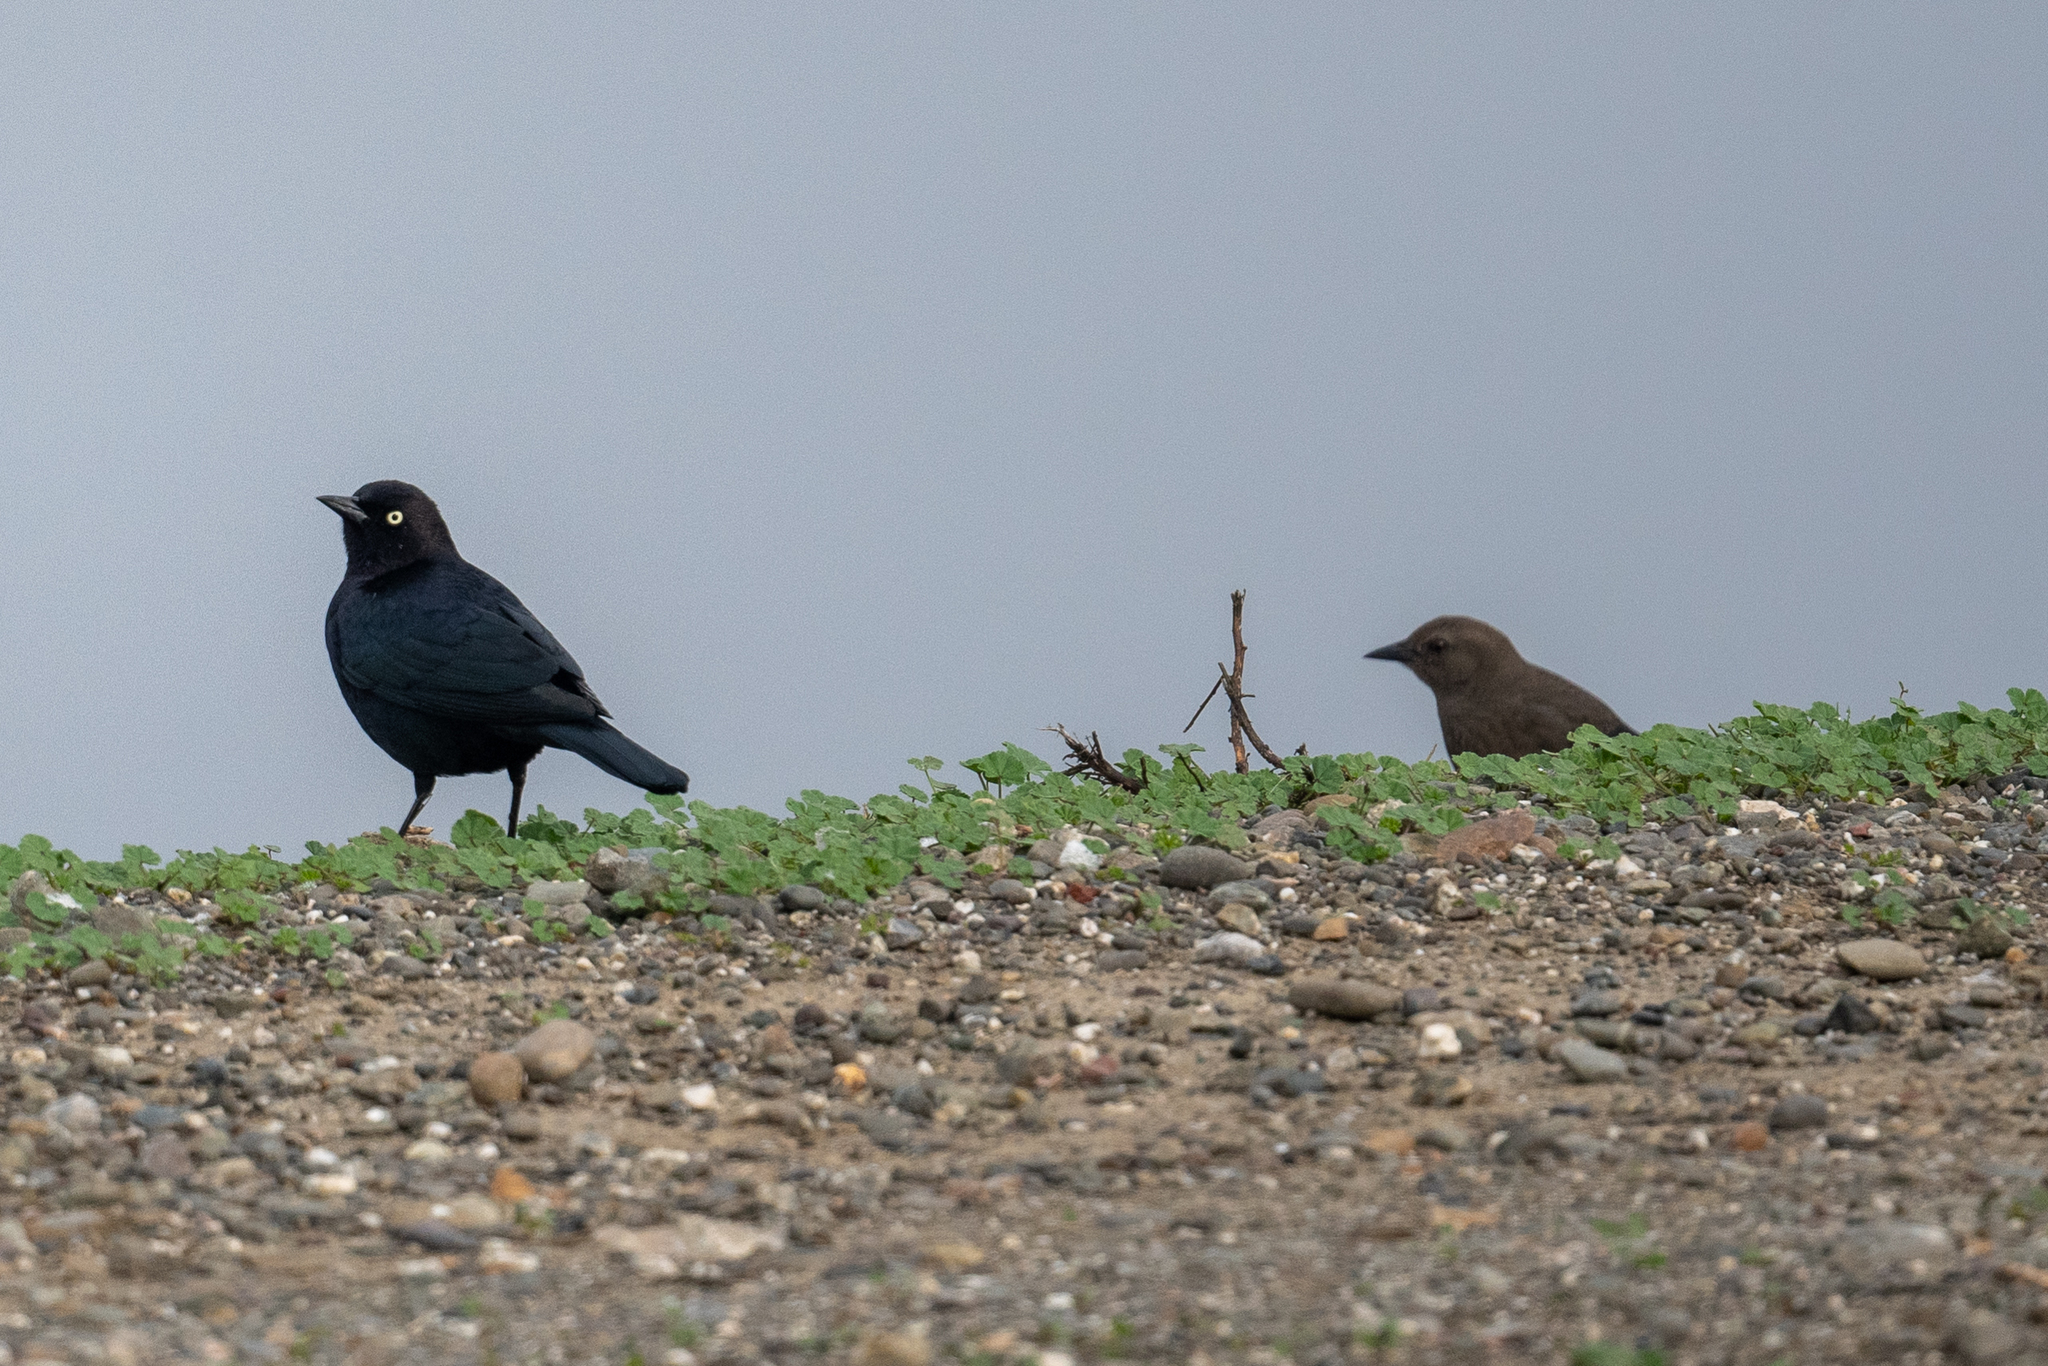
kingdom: Animalia
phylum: Chordata
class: Aves
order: Passeriformes
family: Icteridae
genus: Euphagus
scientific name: Euphagus cyanocephalus
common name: Brewer's blackbird
